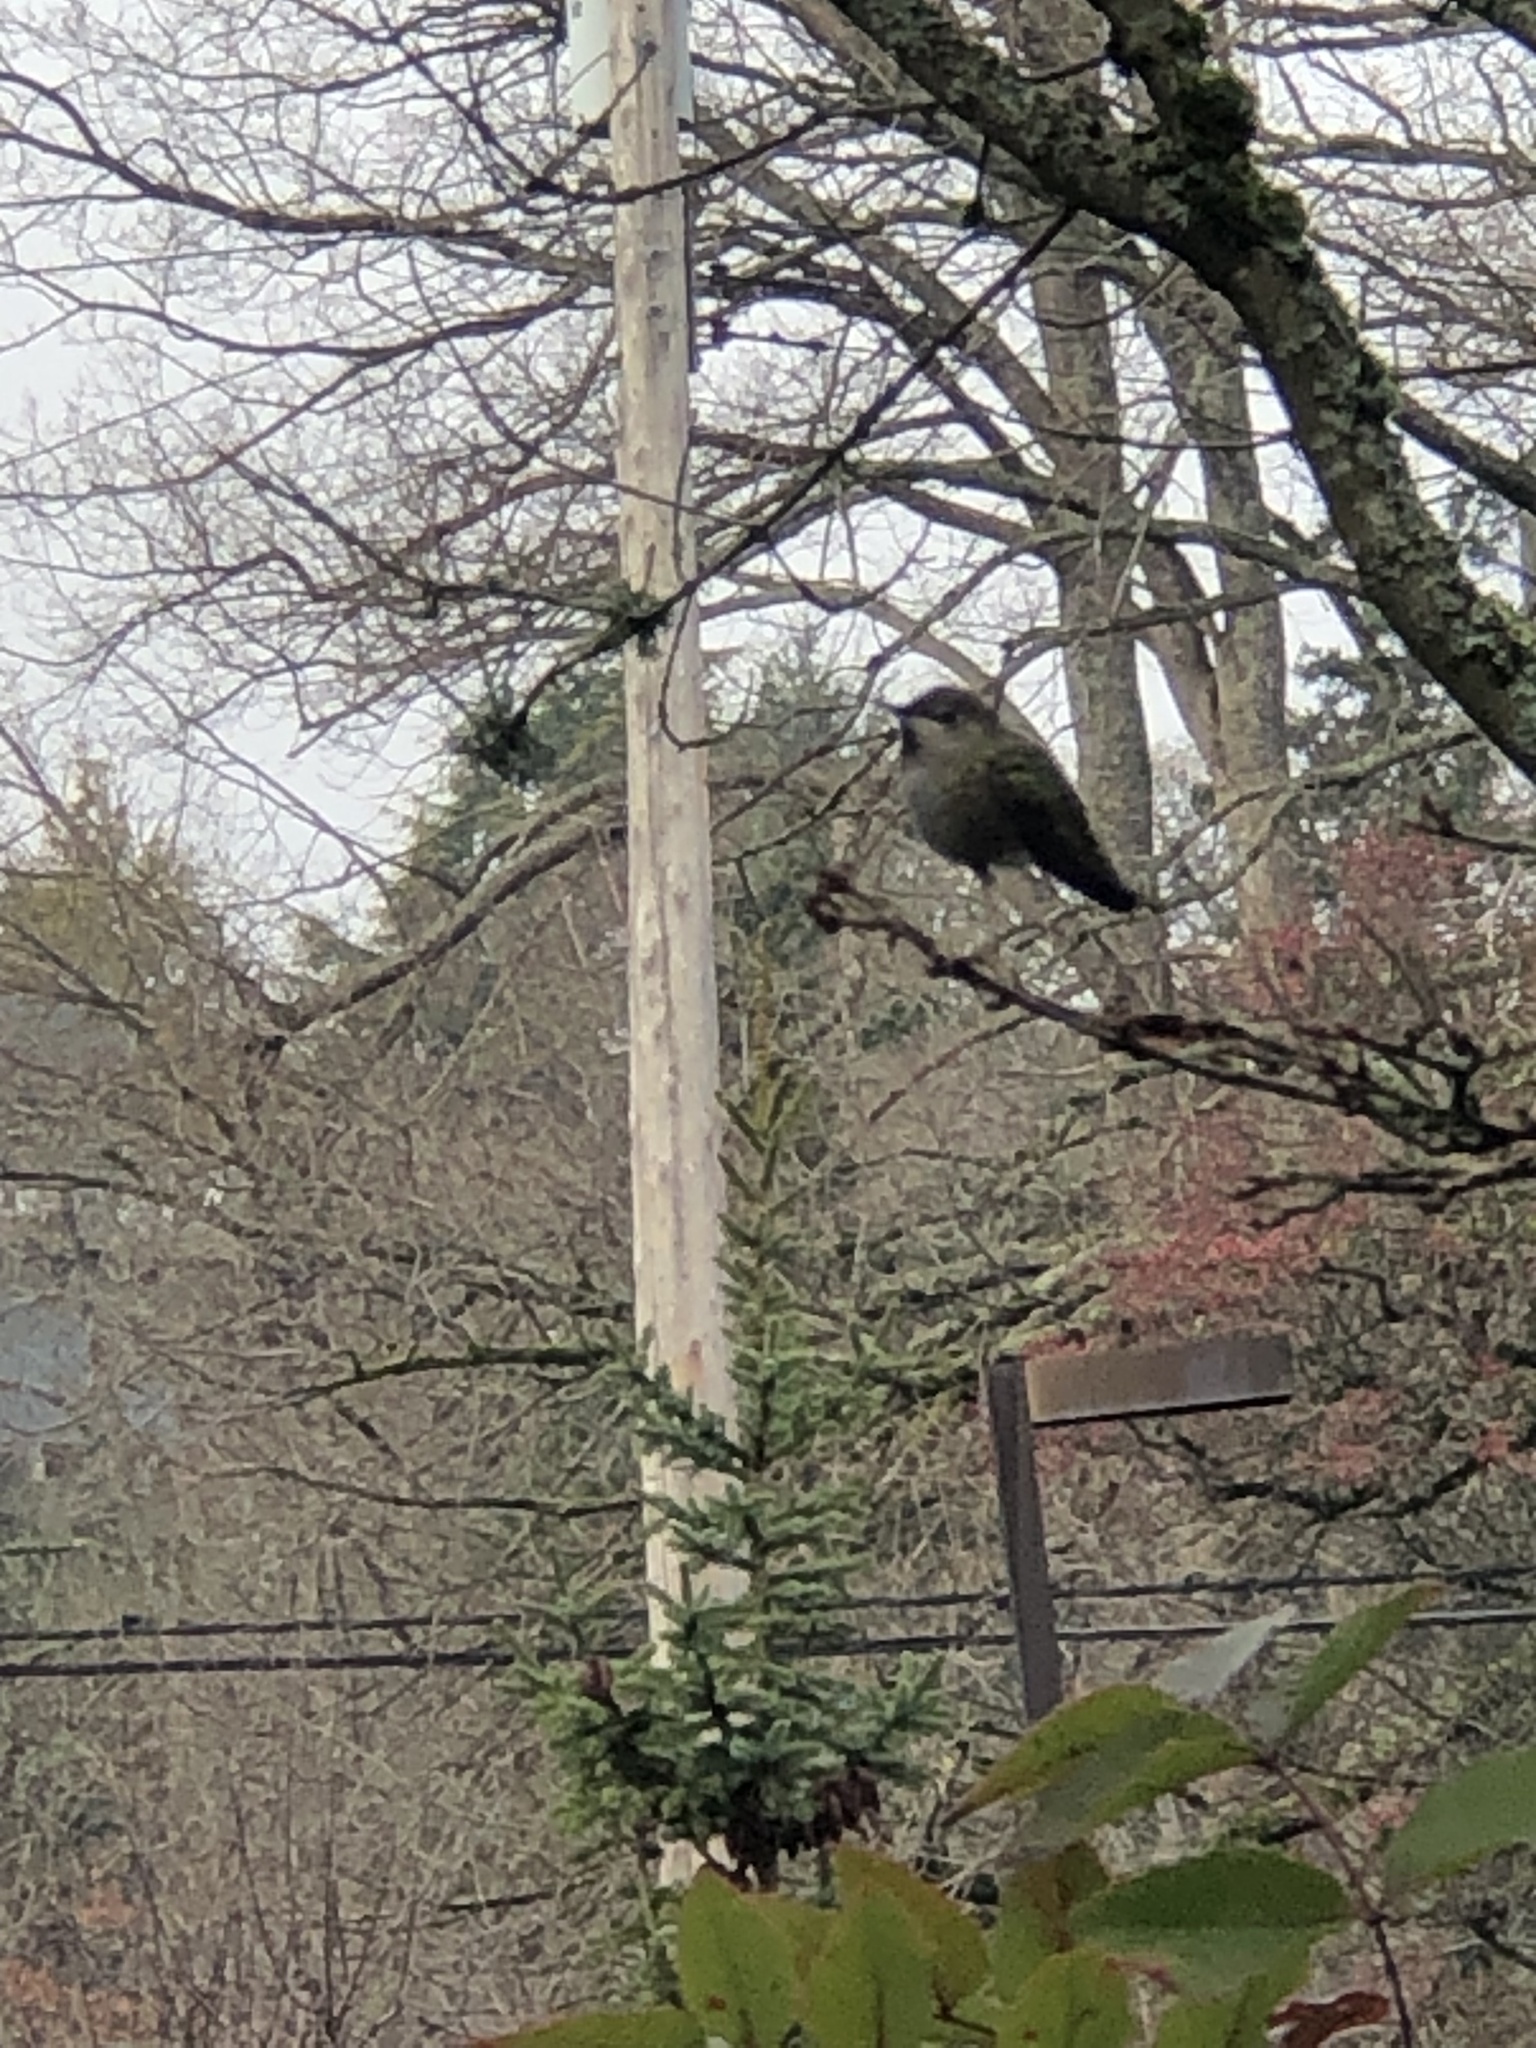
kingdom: Animalia
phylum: Chordata
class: Aves
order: Apodiformes
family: Trochilidae
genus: Calypte
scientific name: Calypte anna
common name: Anna's hummingbird
